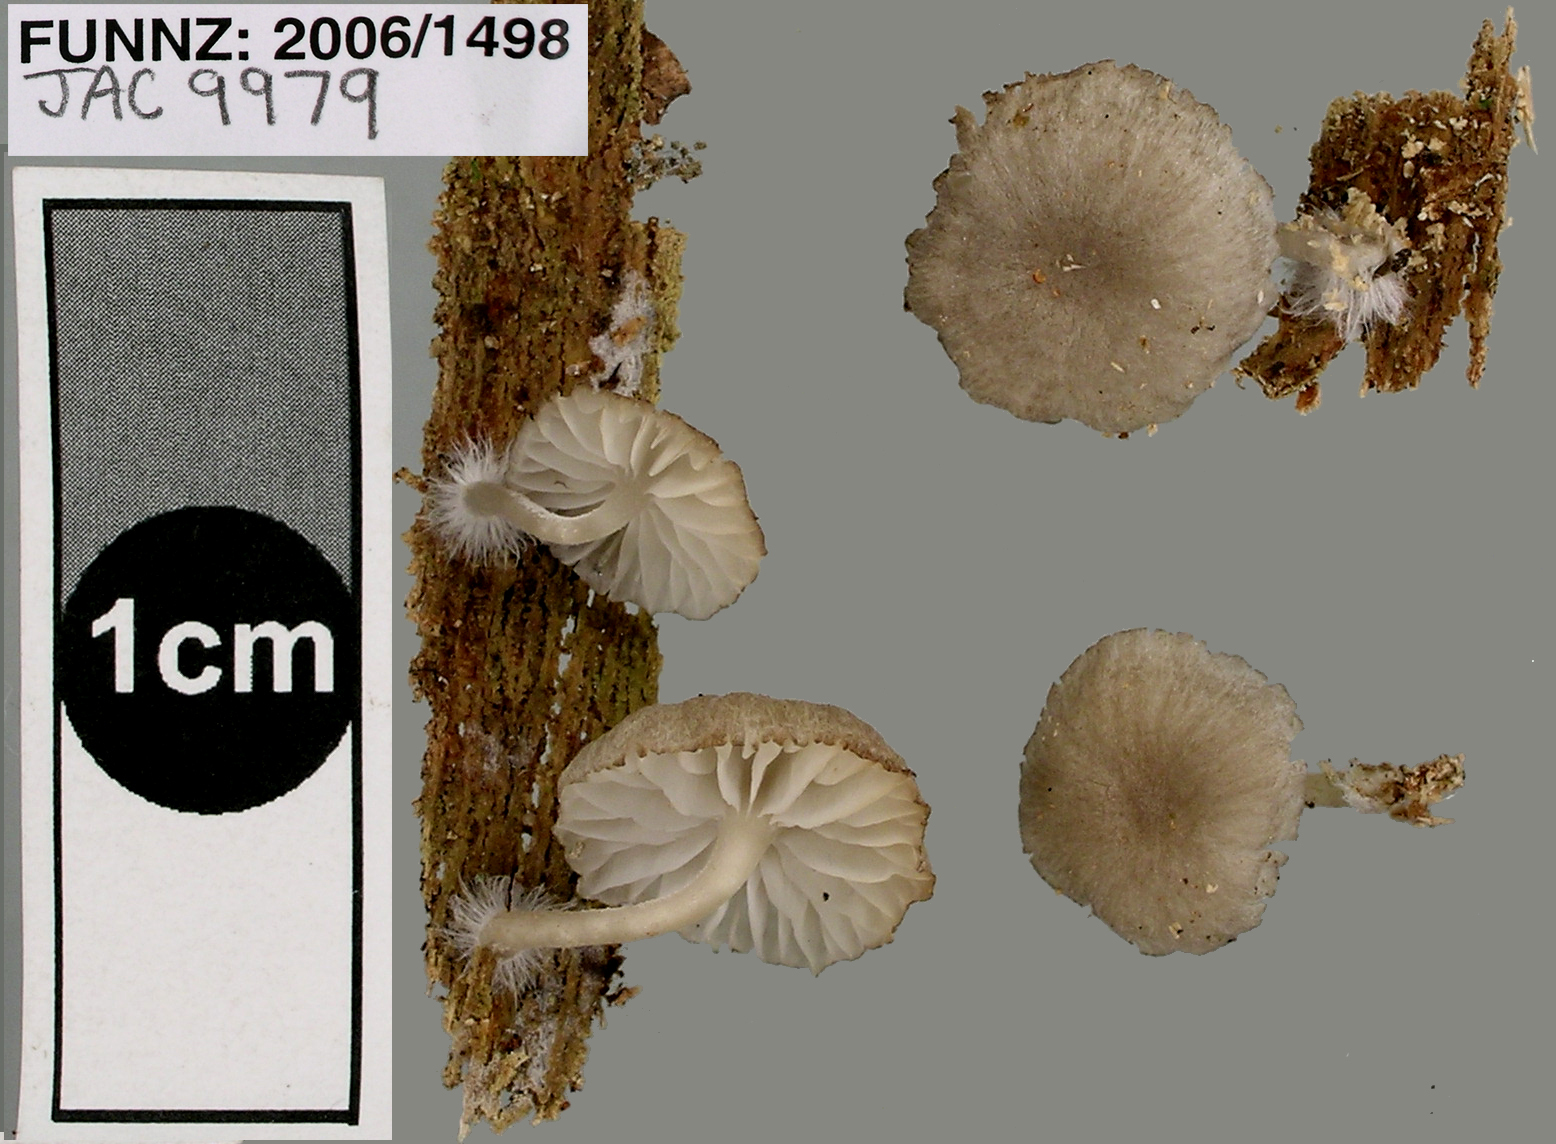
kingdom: Fungi
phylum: Basidiomycota
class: Agaricomycetes
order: Agaricales
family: Marasmiaceae
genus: Clitocybula
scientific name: Clitocybula grisella
